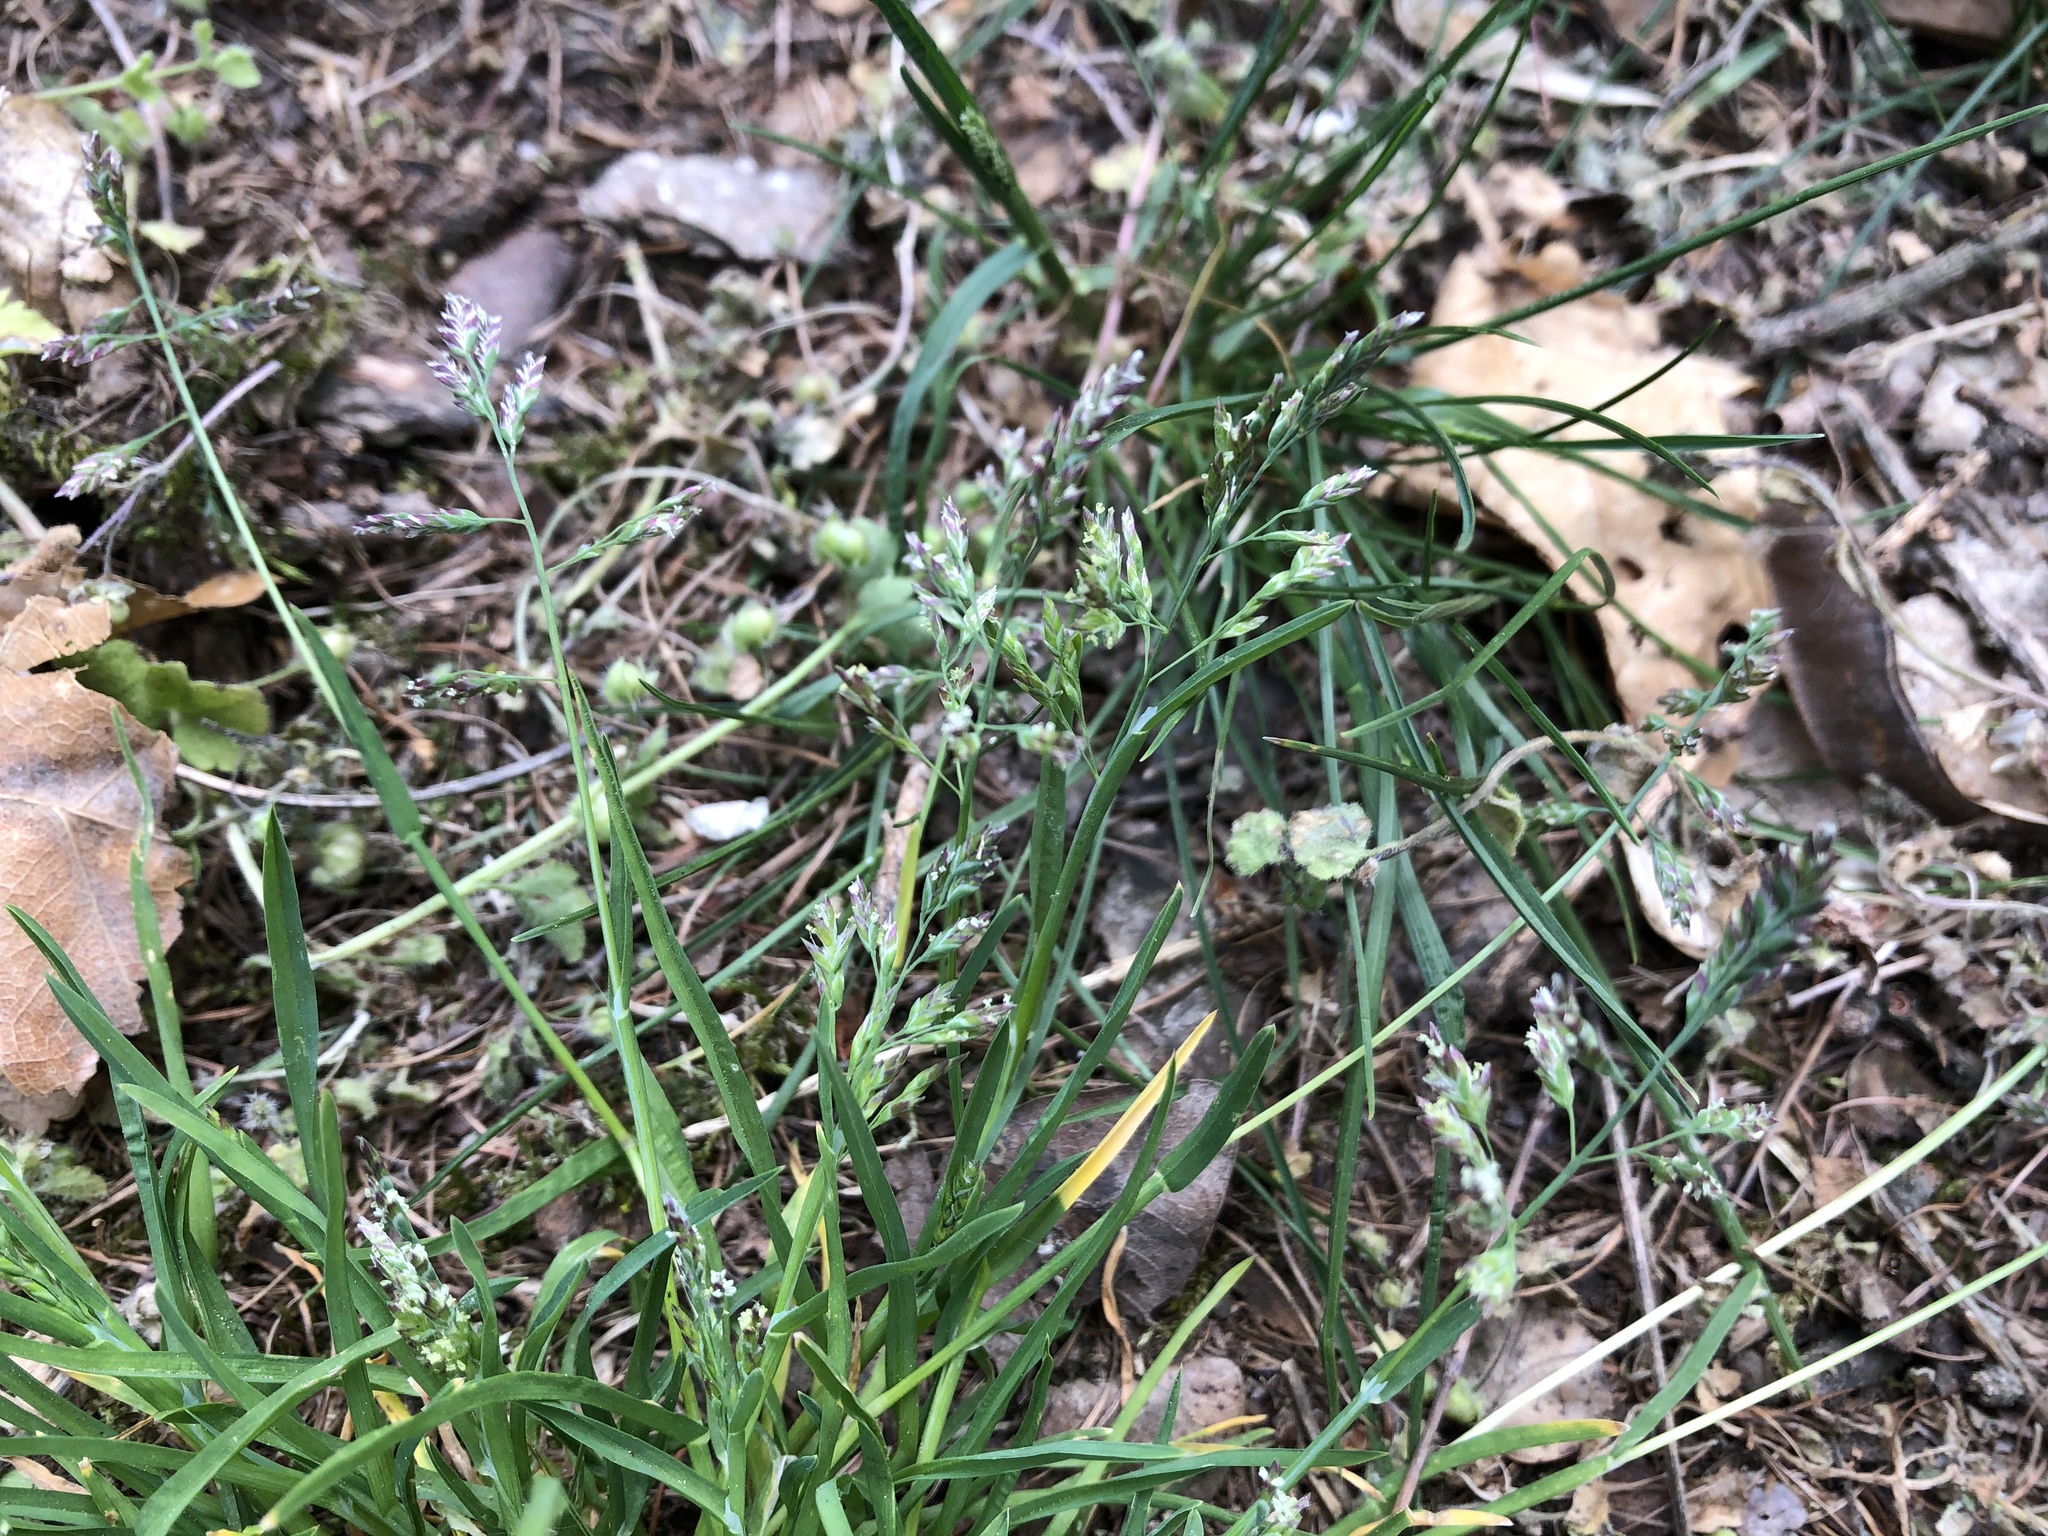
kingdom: Plantae
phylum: Tracheophyta
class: Liliopsida
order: Poales
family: Poaceae
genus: Poa
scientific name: Poa annua
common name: Annual bluegrass
